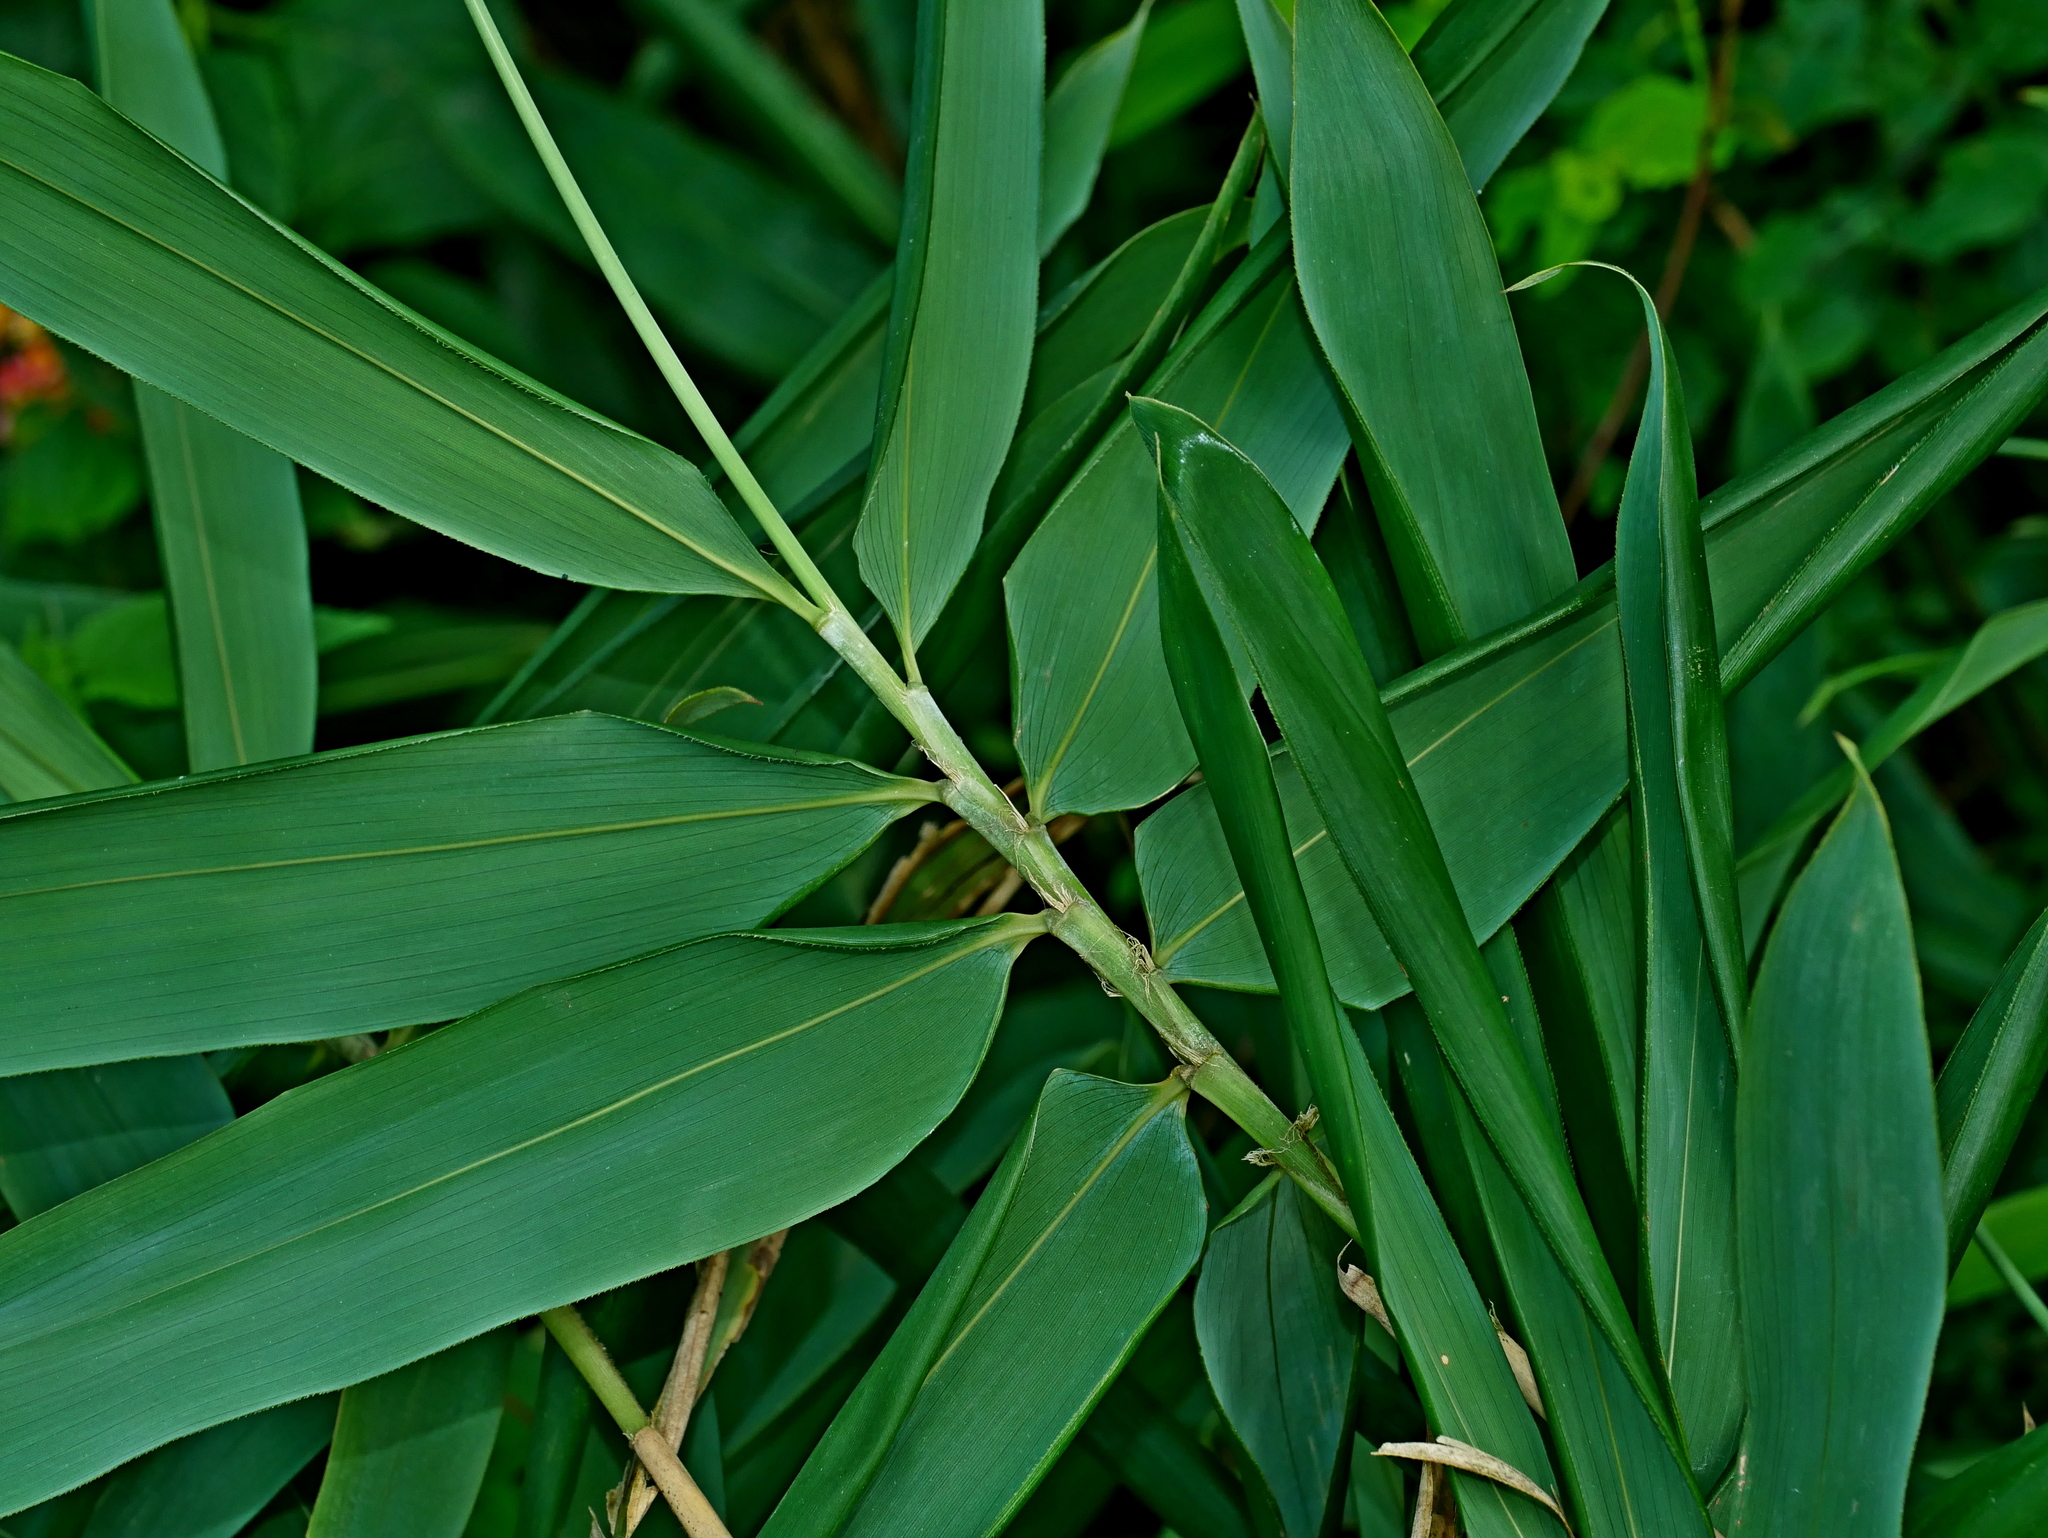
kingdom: Plantae
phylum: Tracheophyta
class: Liliopsida
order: Poales
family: Poaceae
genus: Gelidocalamus
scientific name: Gelidocalamus kunishii
